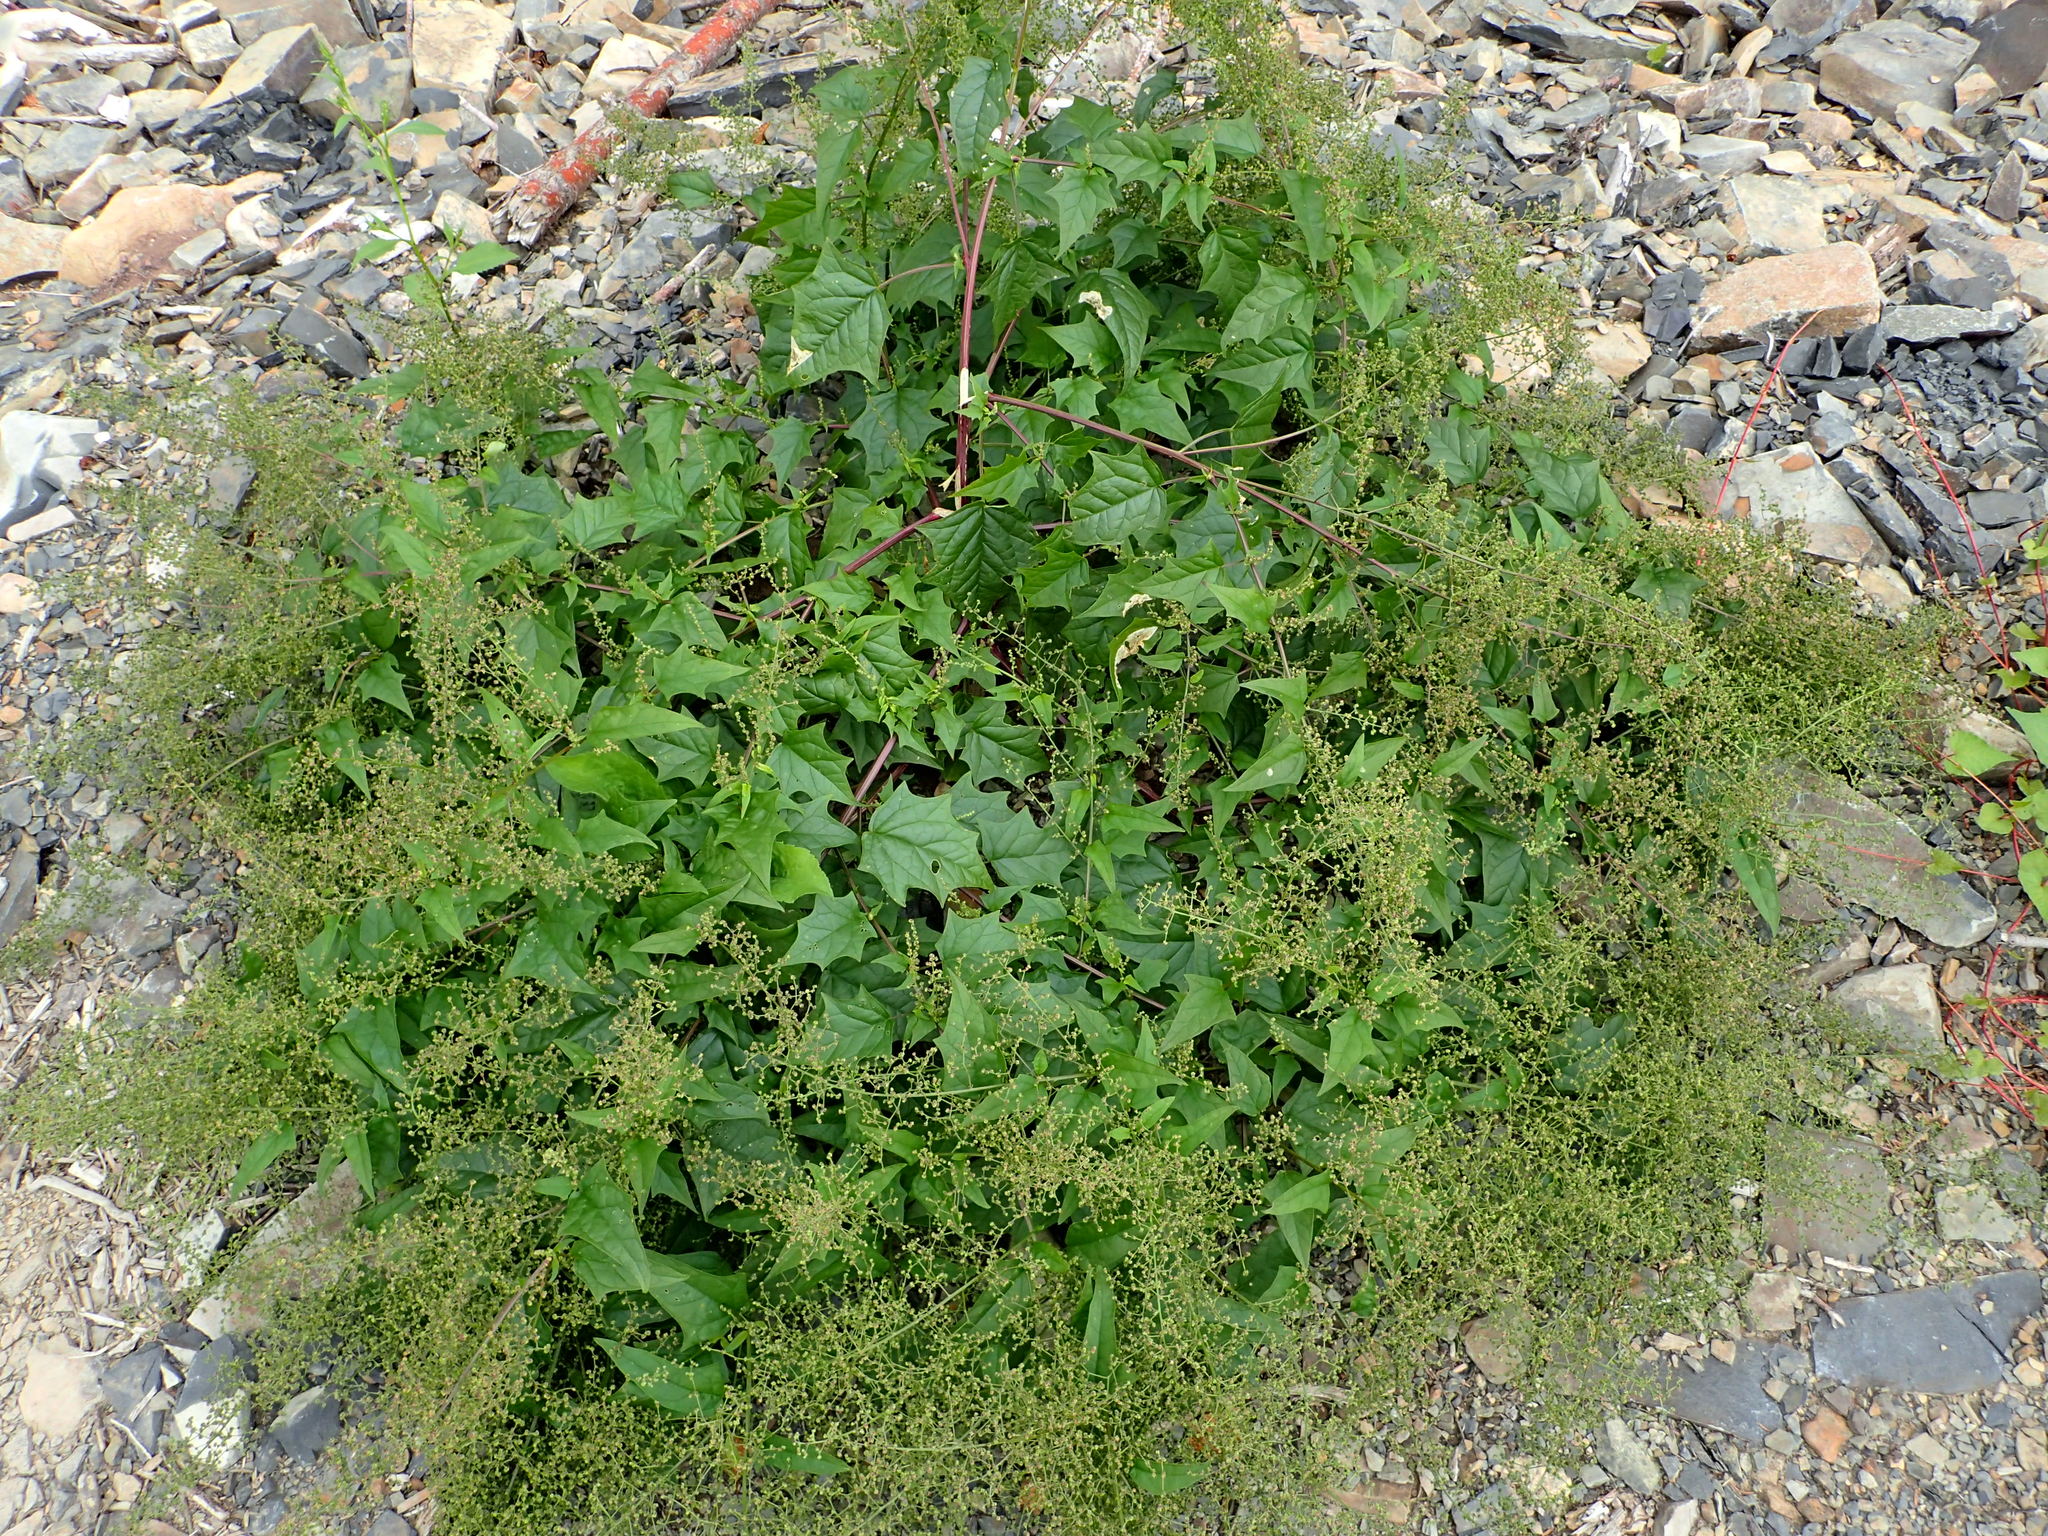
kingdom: Plantae
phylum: Tracheophyta
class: Magnoliopsida
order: Caryophyllales
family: Amaranthaceae
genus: Chenopodiastrum
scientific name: Chenopodiastrum hybridum
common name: Mapleleaf goosefoot
